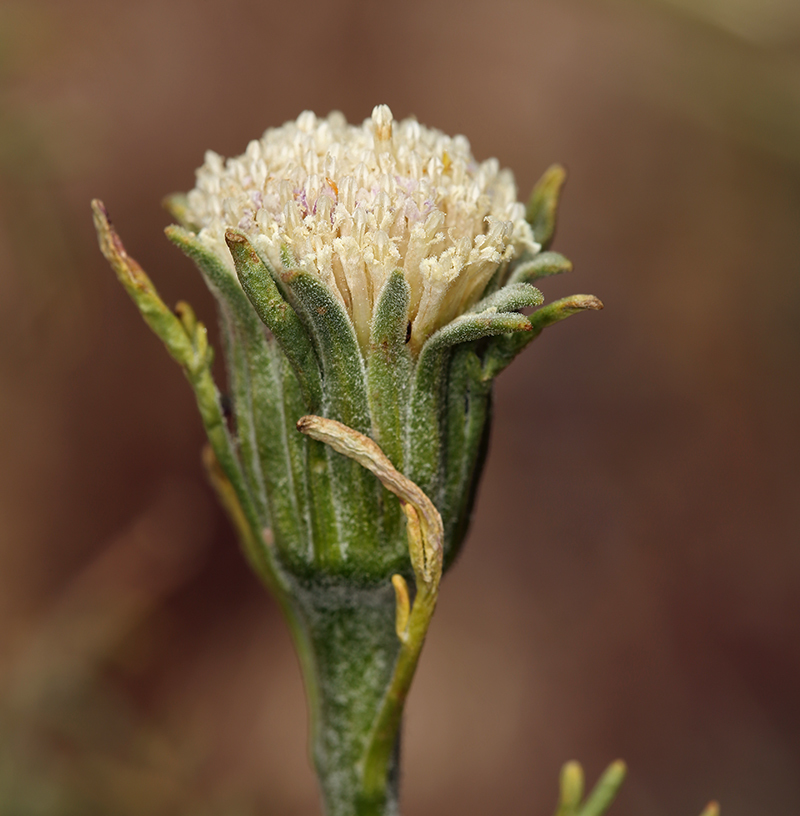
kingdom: Plantae
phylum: Tracheophyta
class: Magnoliopsida
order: Asterales
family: Asteraceae
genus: Chaenactis
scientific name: Chaenactis xantiana
